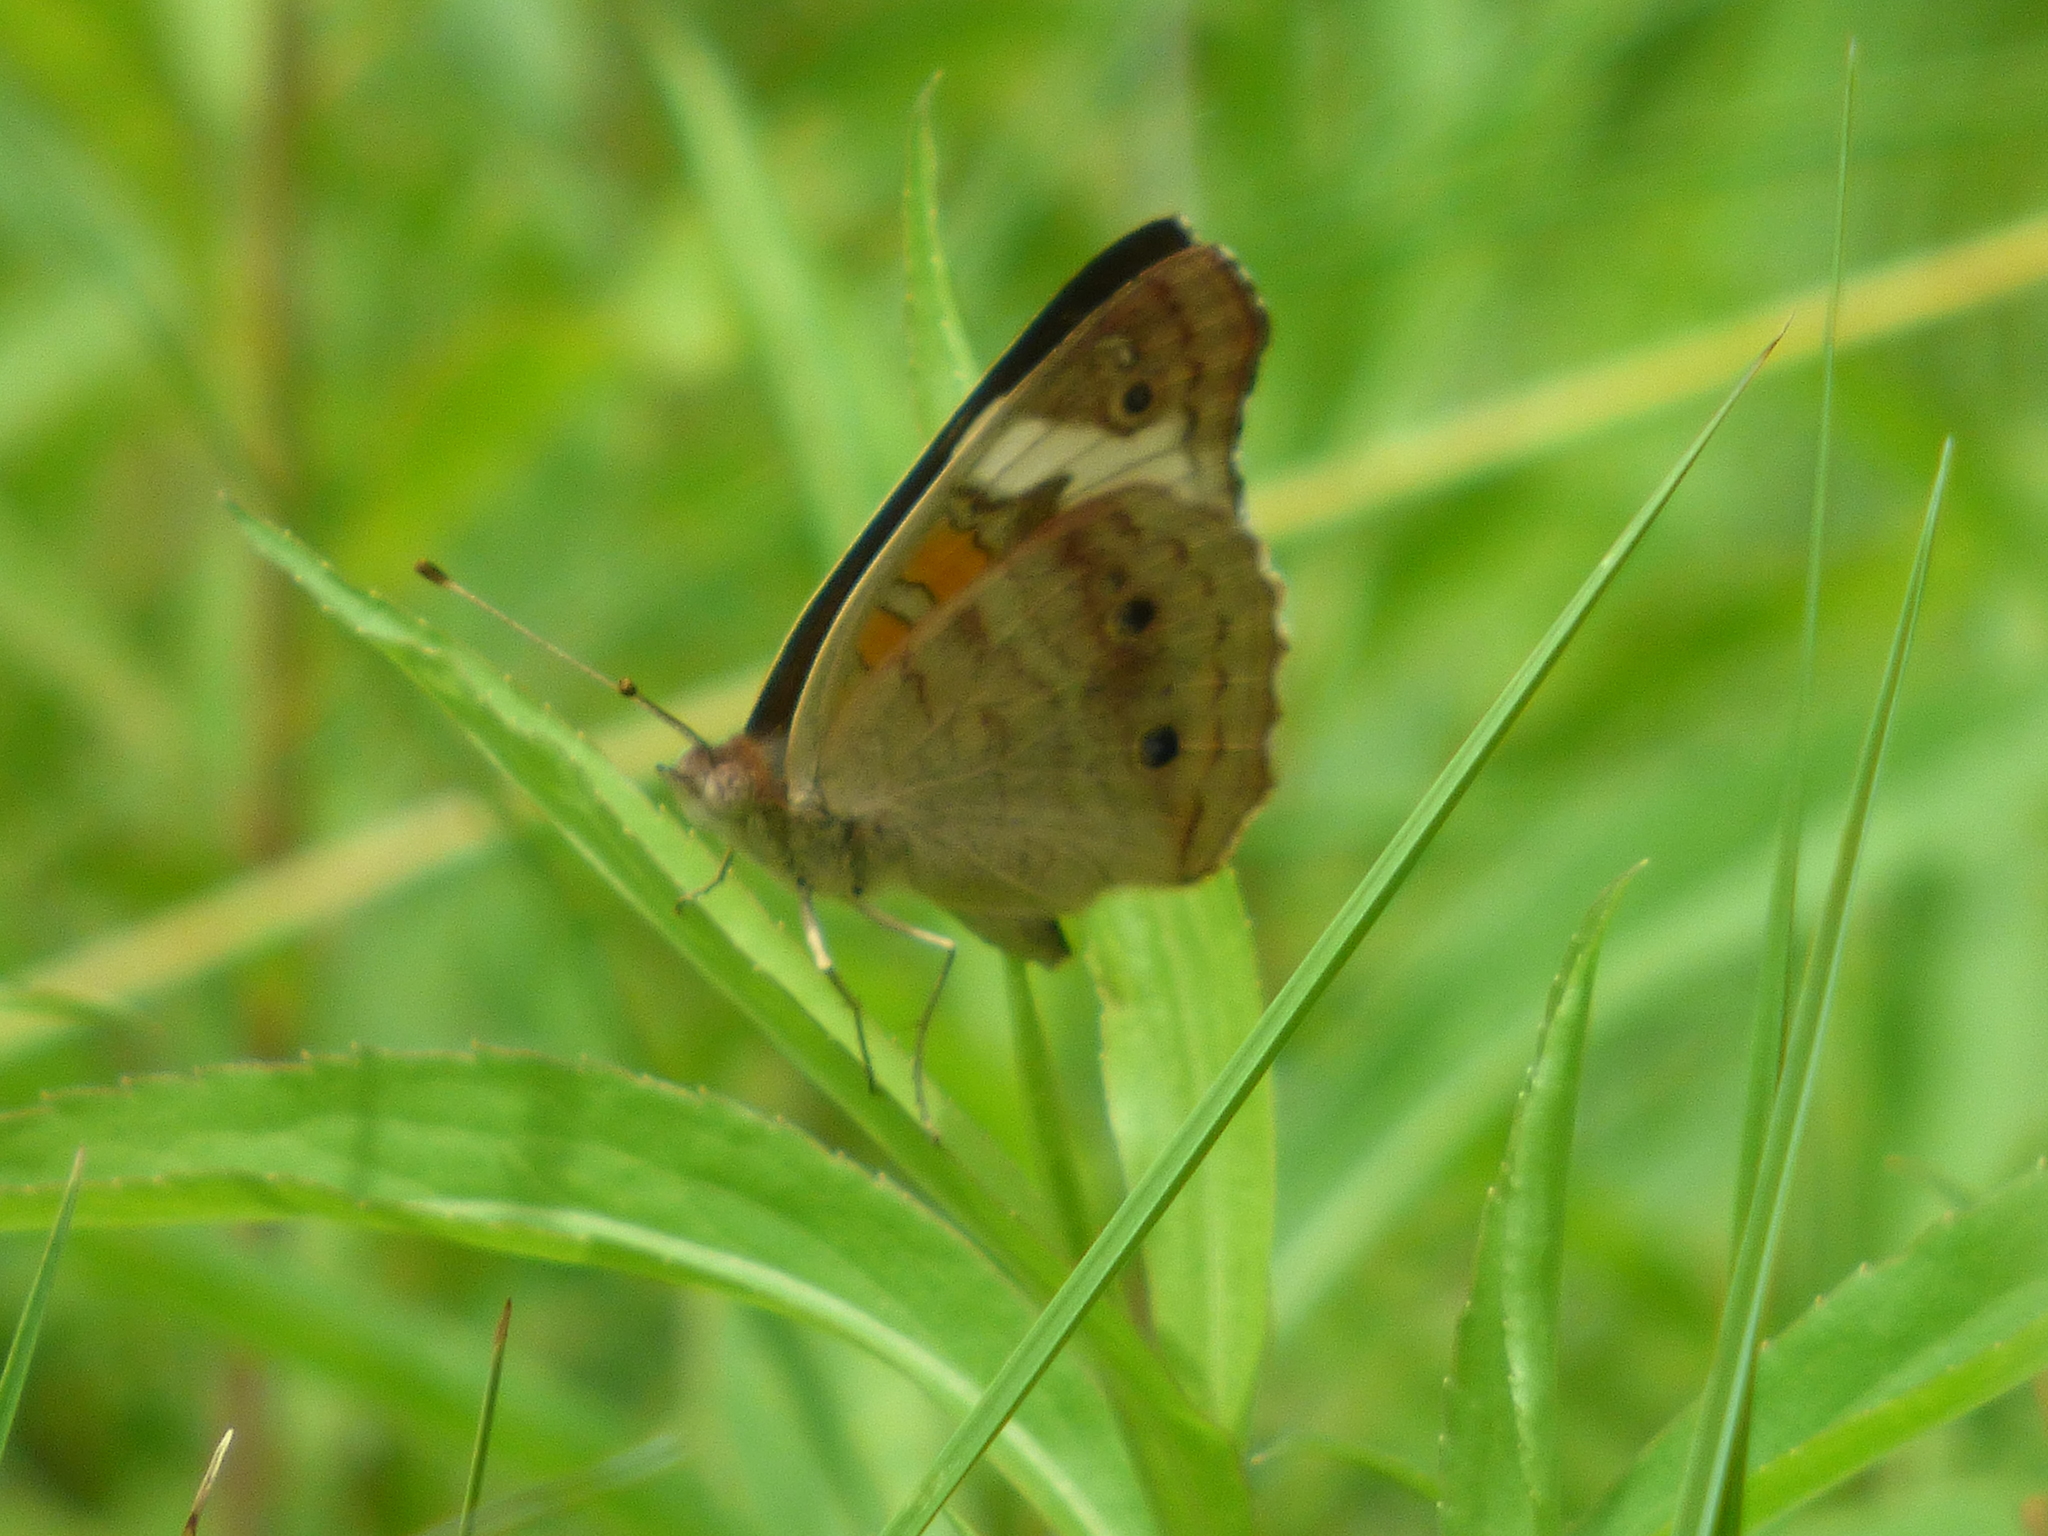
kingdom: Animalia
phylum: Arthropoda
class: Insecta
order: Lepidoptera
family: Nymphalidae
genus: Junonia
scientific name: Junonia coenia
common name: Common buckeye
